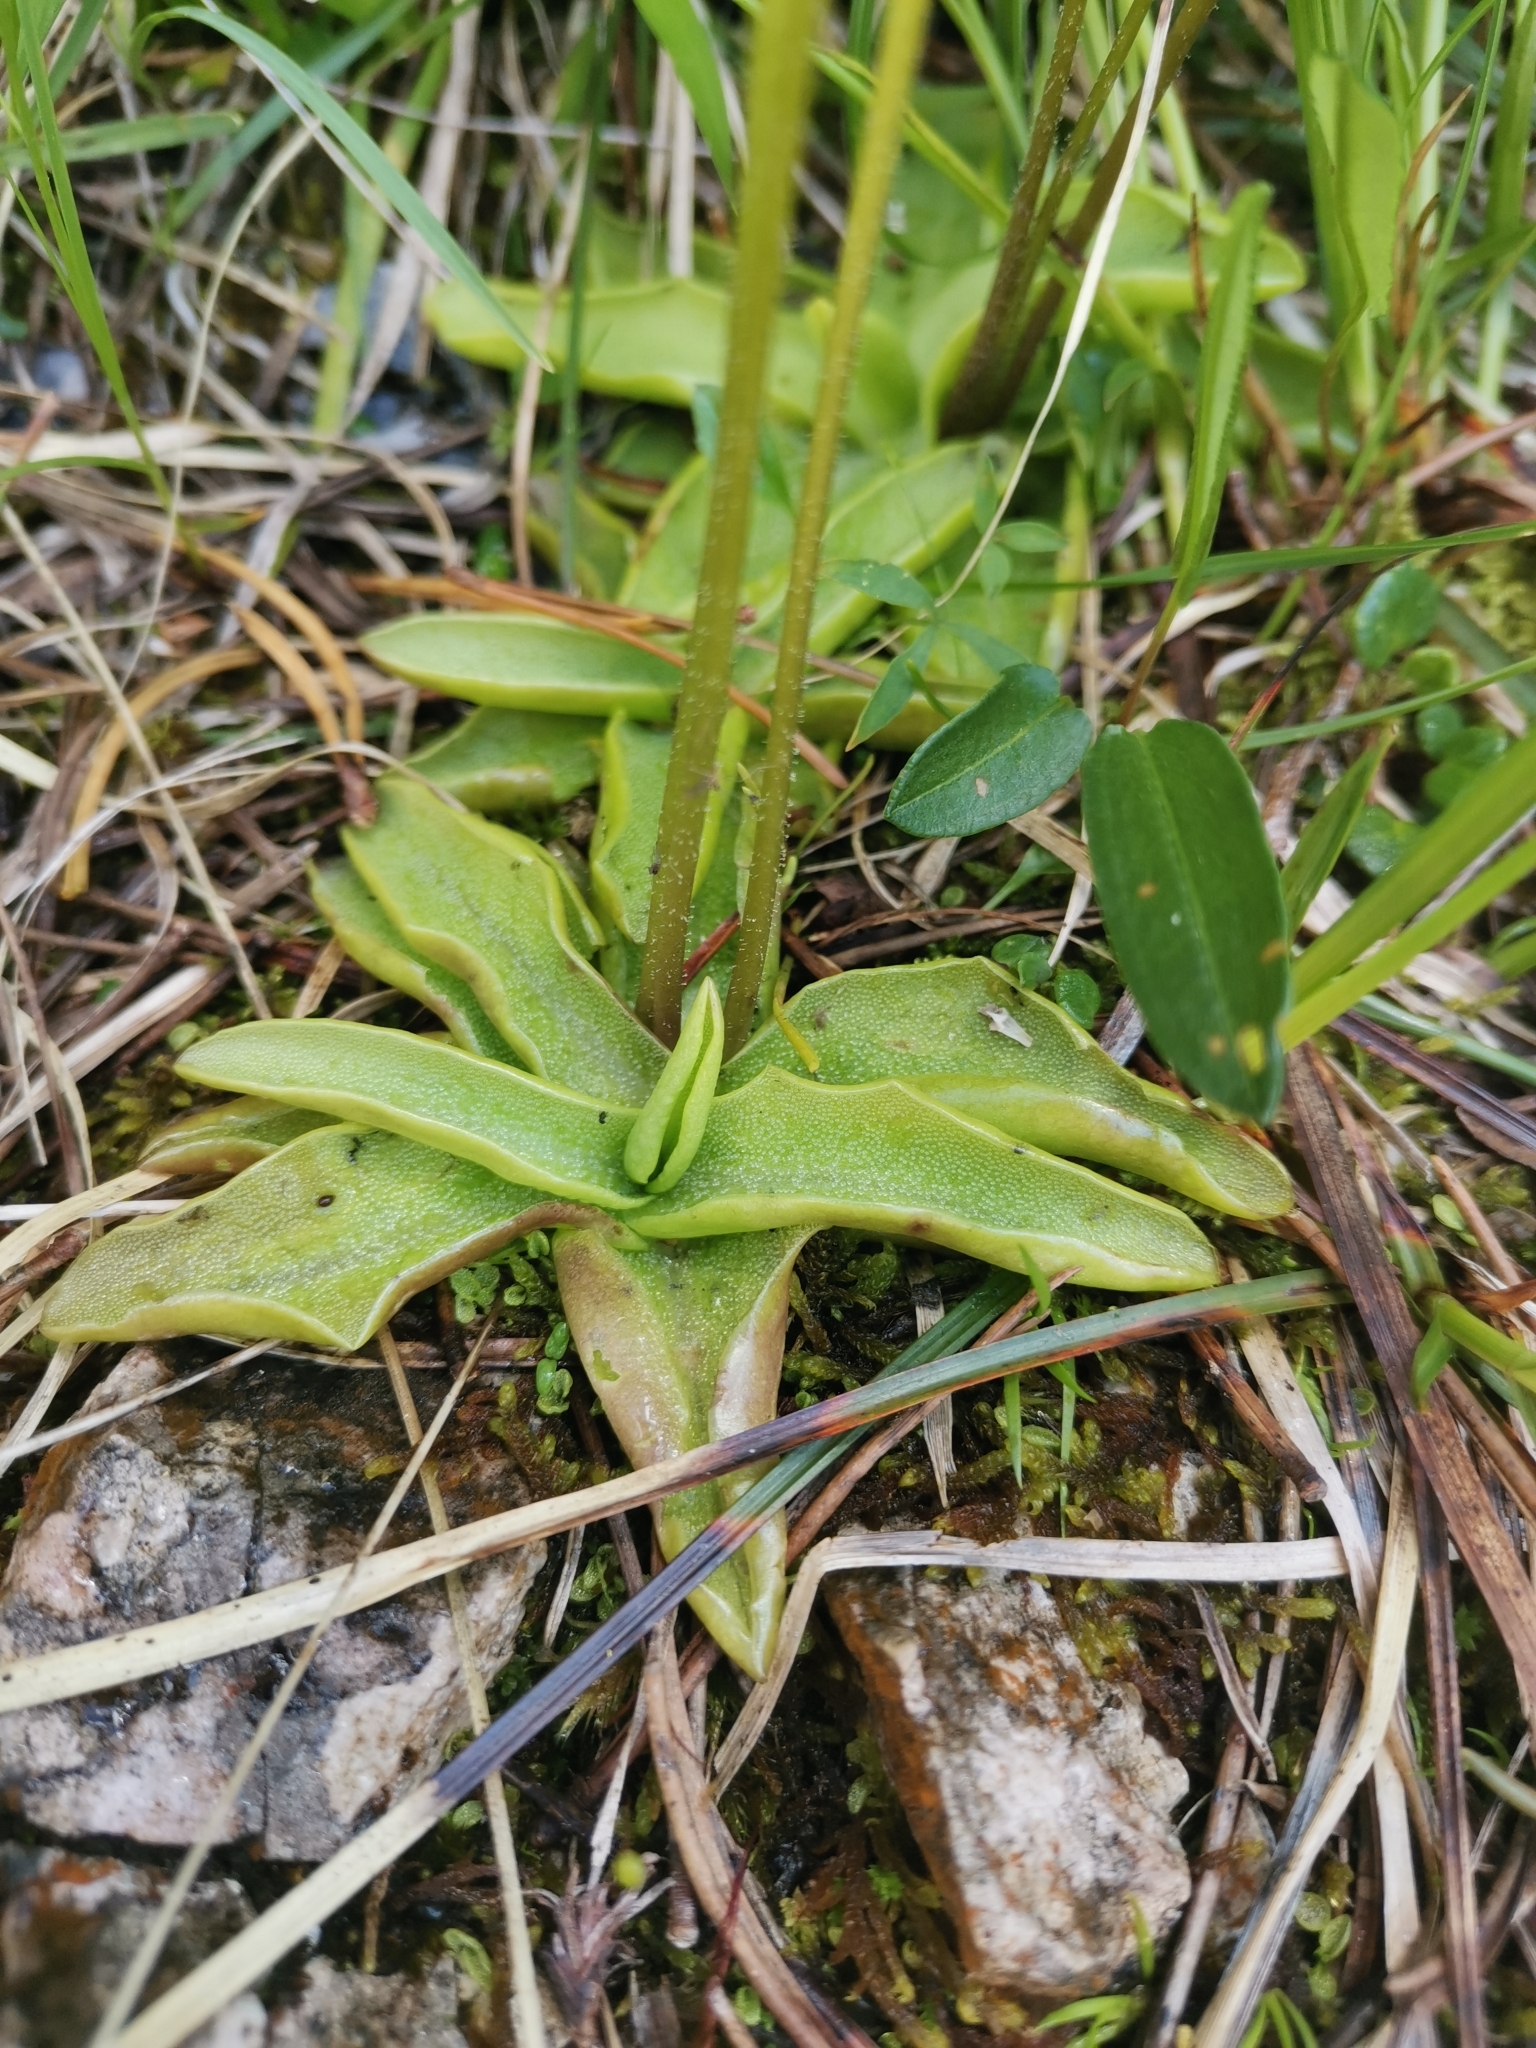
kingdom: Plantae
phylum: Tracheophyta
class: Magnoliopsida
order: Lamiales
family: Lentibulariaceae
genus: Pinguicula
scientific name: Pinguicula alpina
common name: Alpine butterwort
